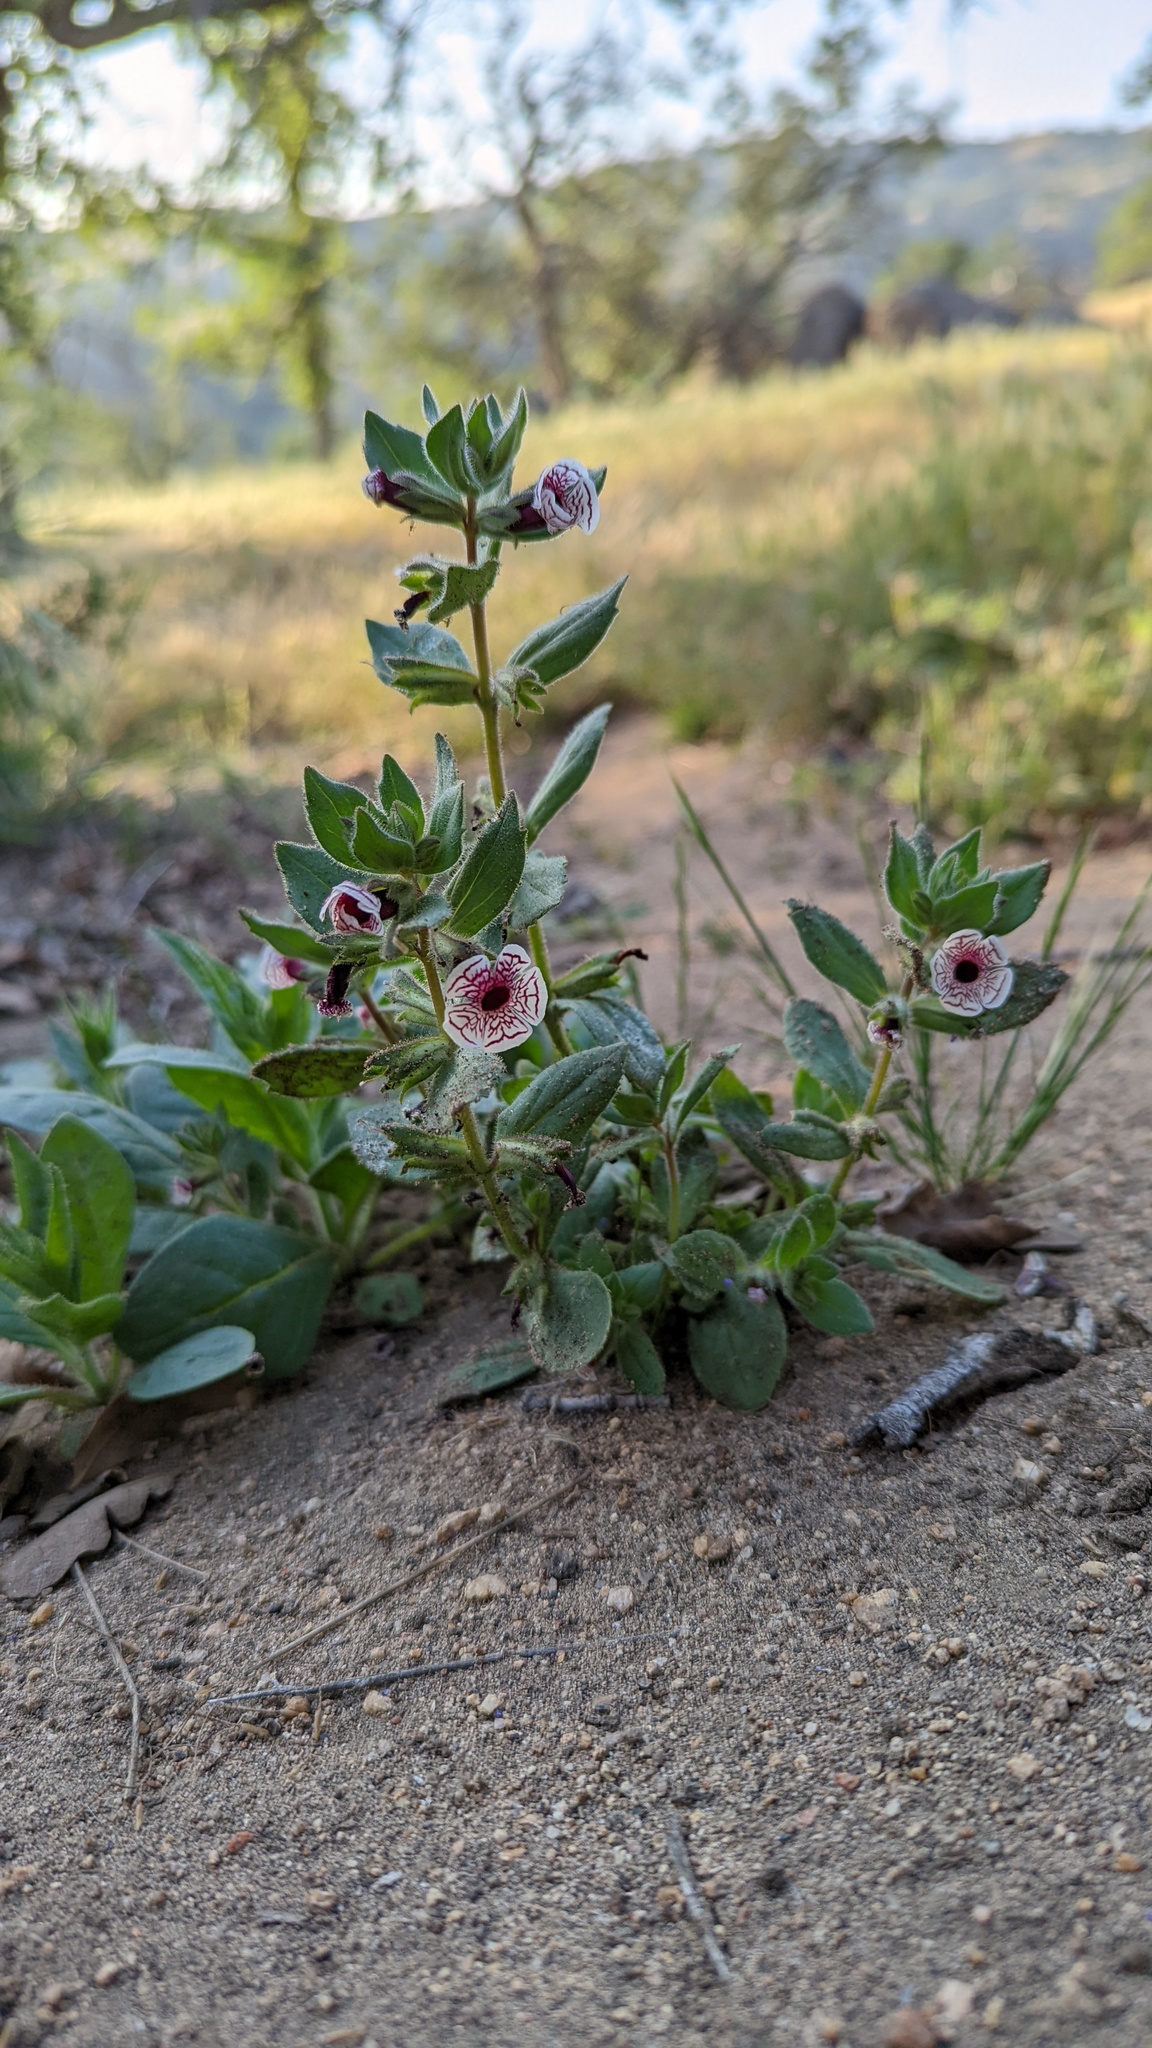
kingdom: Plantae
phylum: Tracheophyta
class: Magnoliopsida
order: Lamiales
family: Phrymaceae
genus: Diplacus
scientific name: Diplacus pictus
